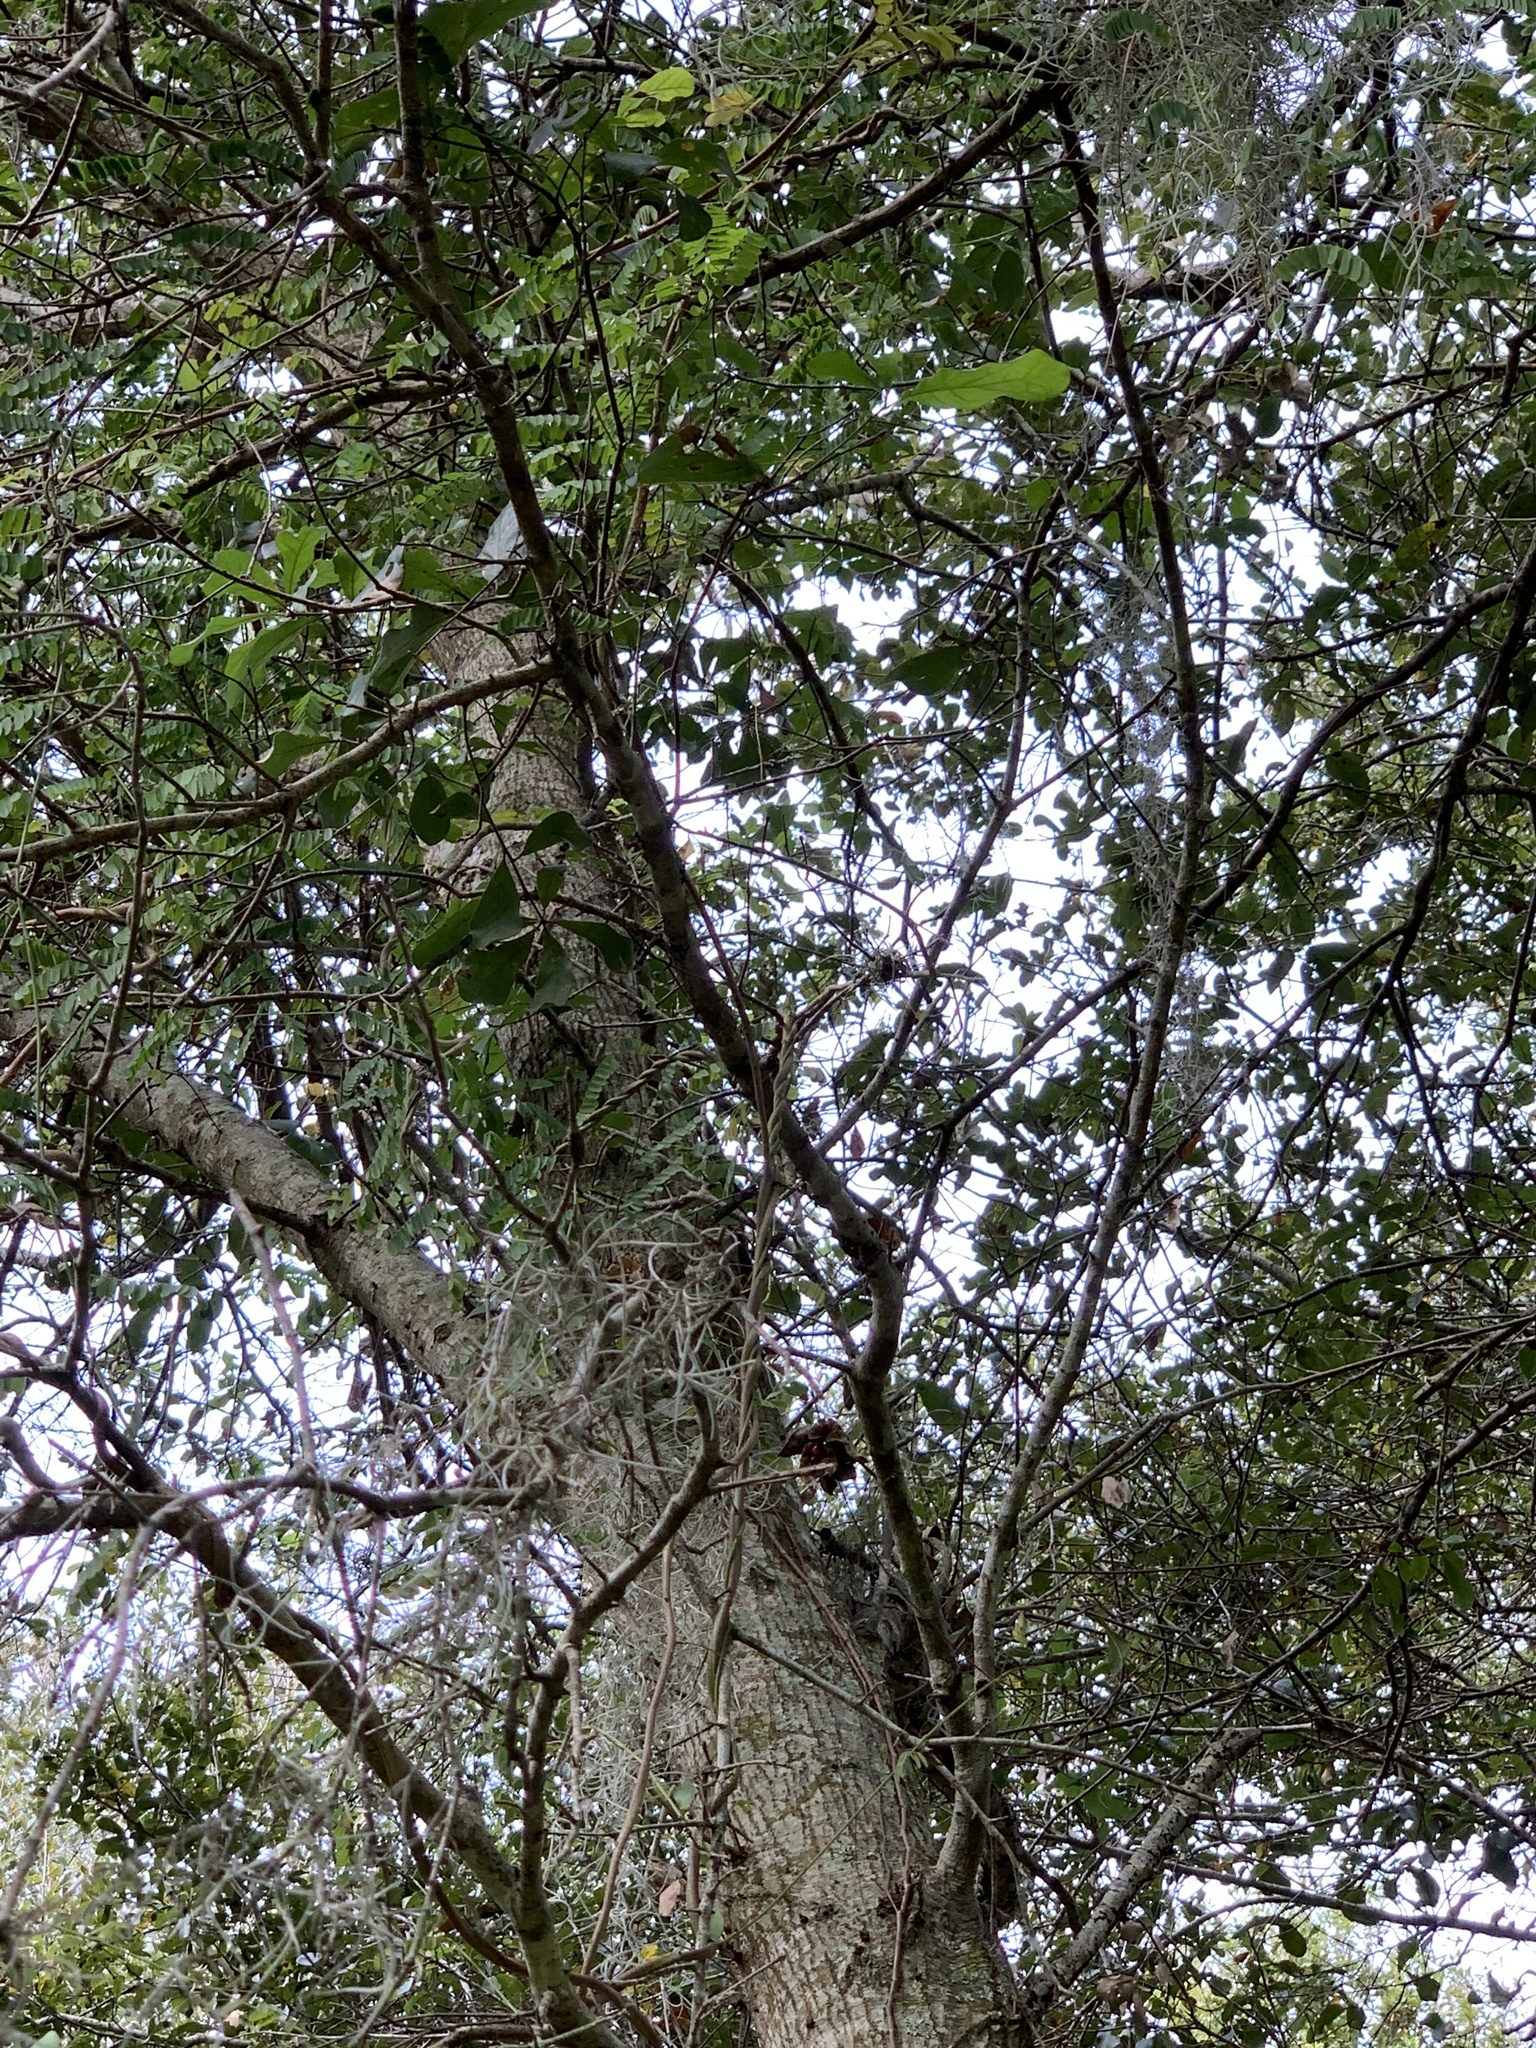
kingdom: Plantae
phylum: Tracheophyta
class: Magnoliopsida
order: Fagales
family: Fagaceae
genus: Quercus
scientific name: Quercus nigra
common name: Water oak
